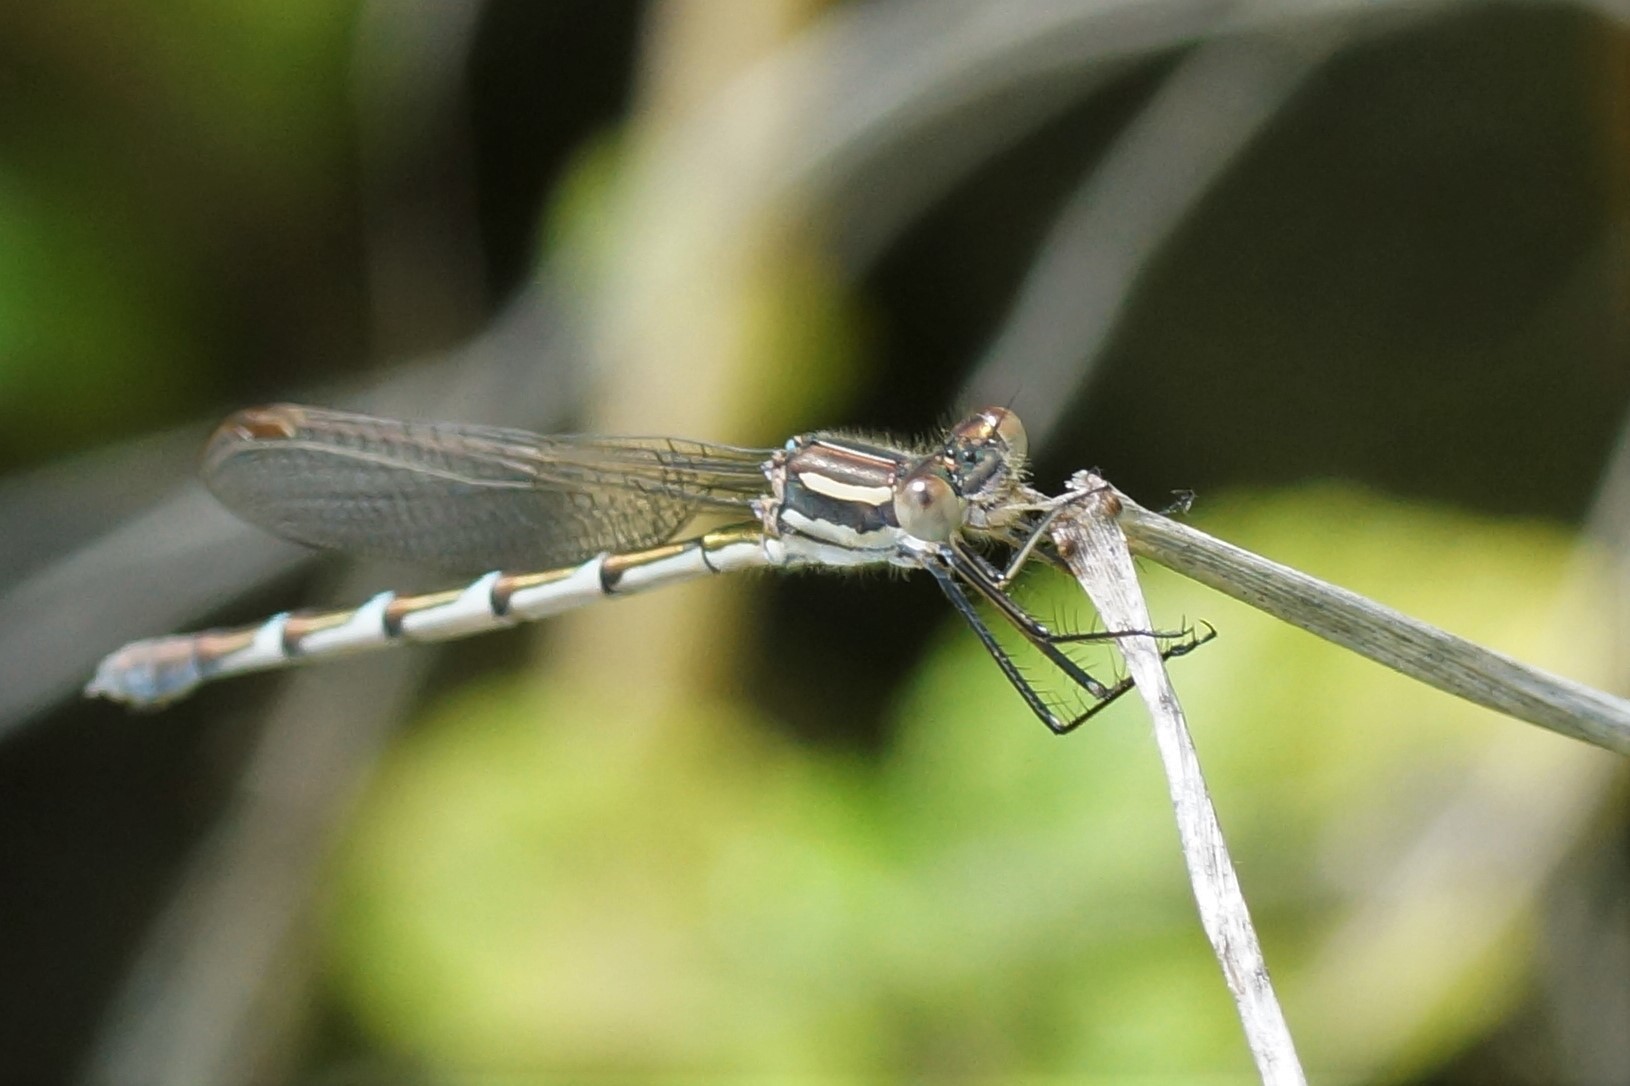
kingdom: Animalia
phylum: Arthropoda
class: Insecta
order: Odonata
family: Lestidae
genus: Austrolestes
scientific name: Austrolestes annulosus
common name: Blue ringtail
